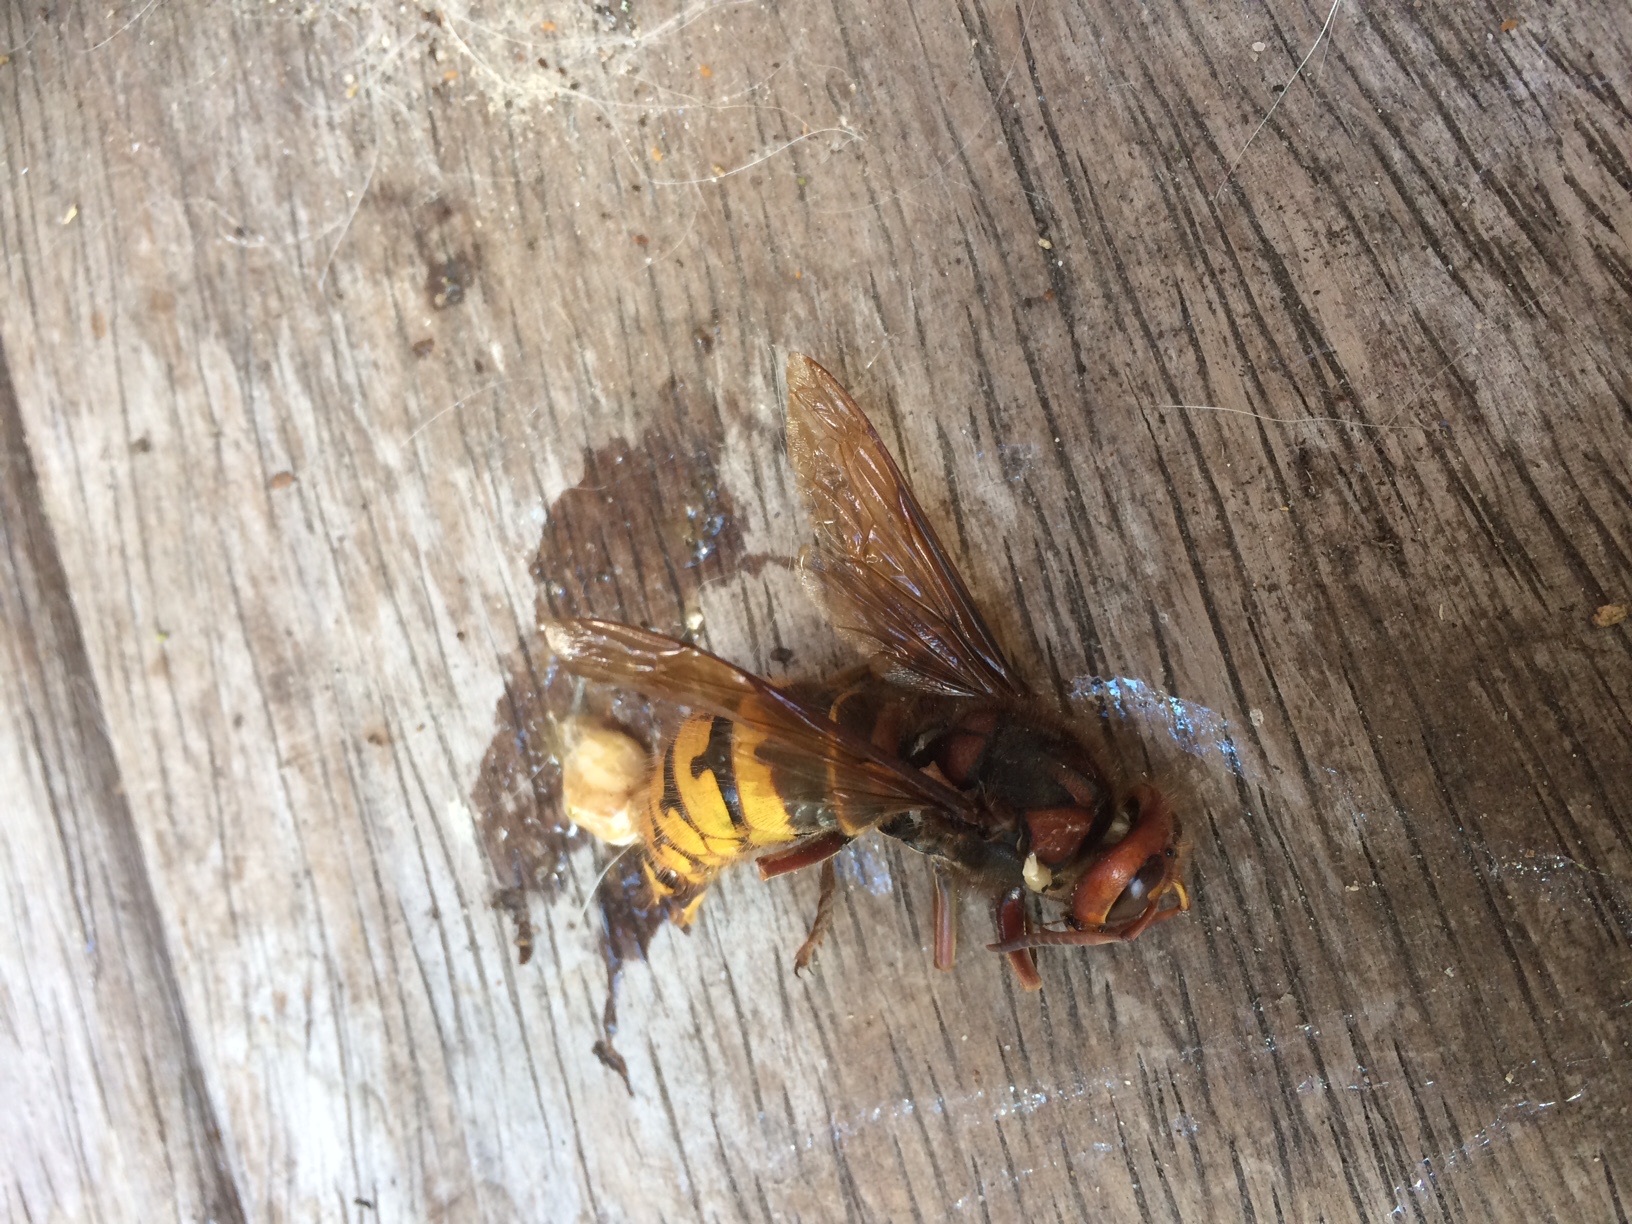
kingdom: Animalia
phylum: Arthropoda
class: Insecta
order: Hymenoptera
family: Vespidae
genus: Vespa
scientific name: Vespa crabro
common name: Hornet
